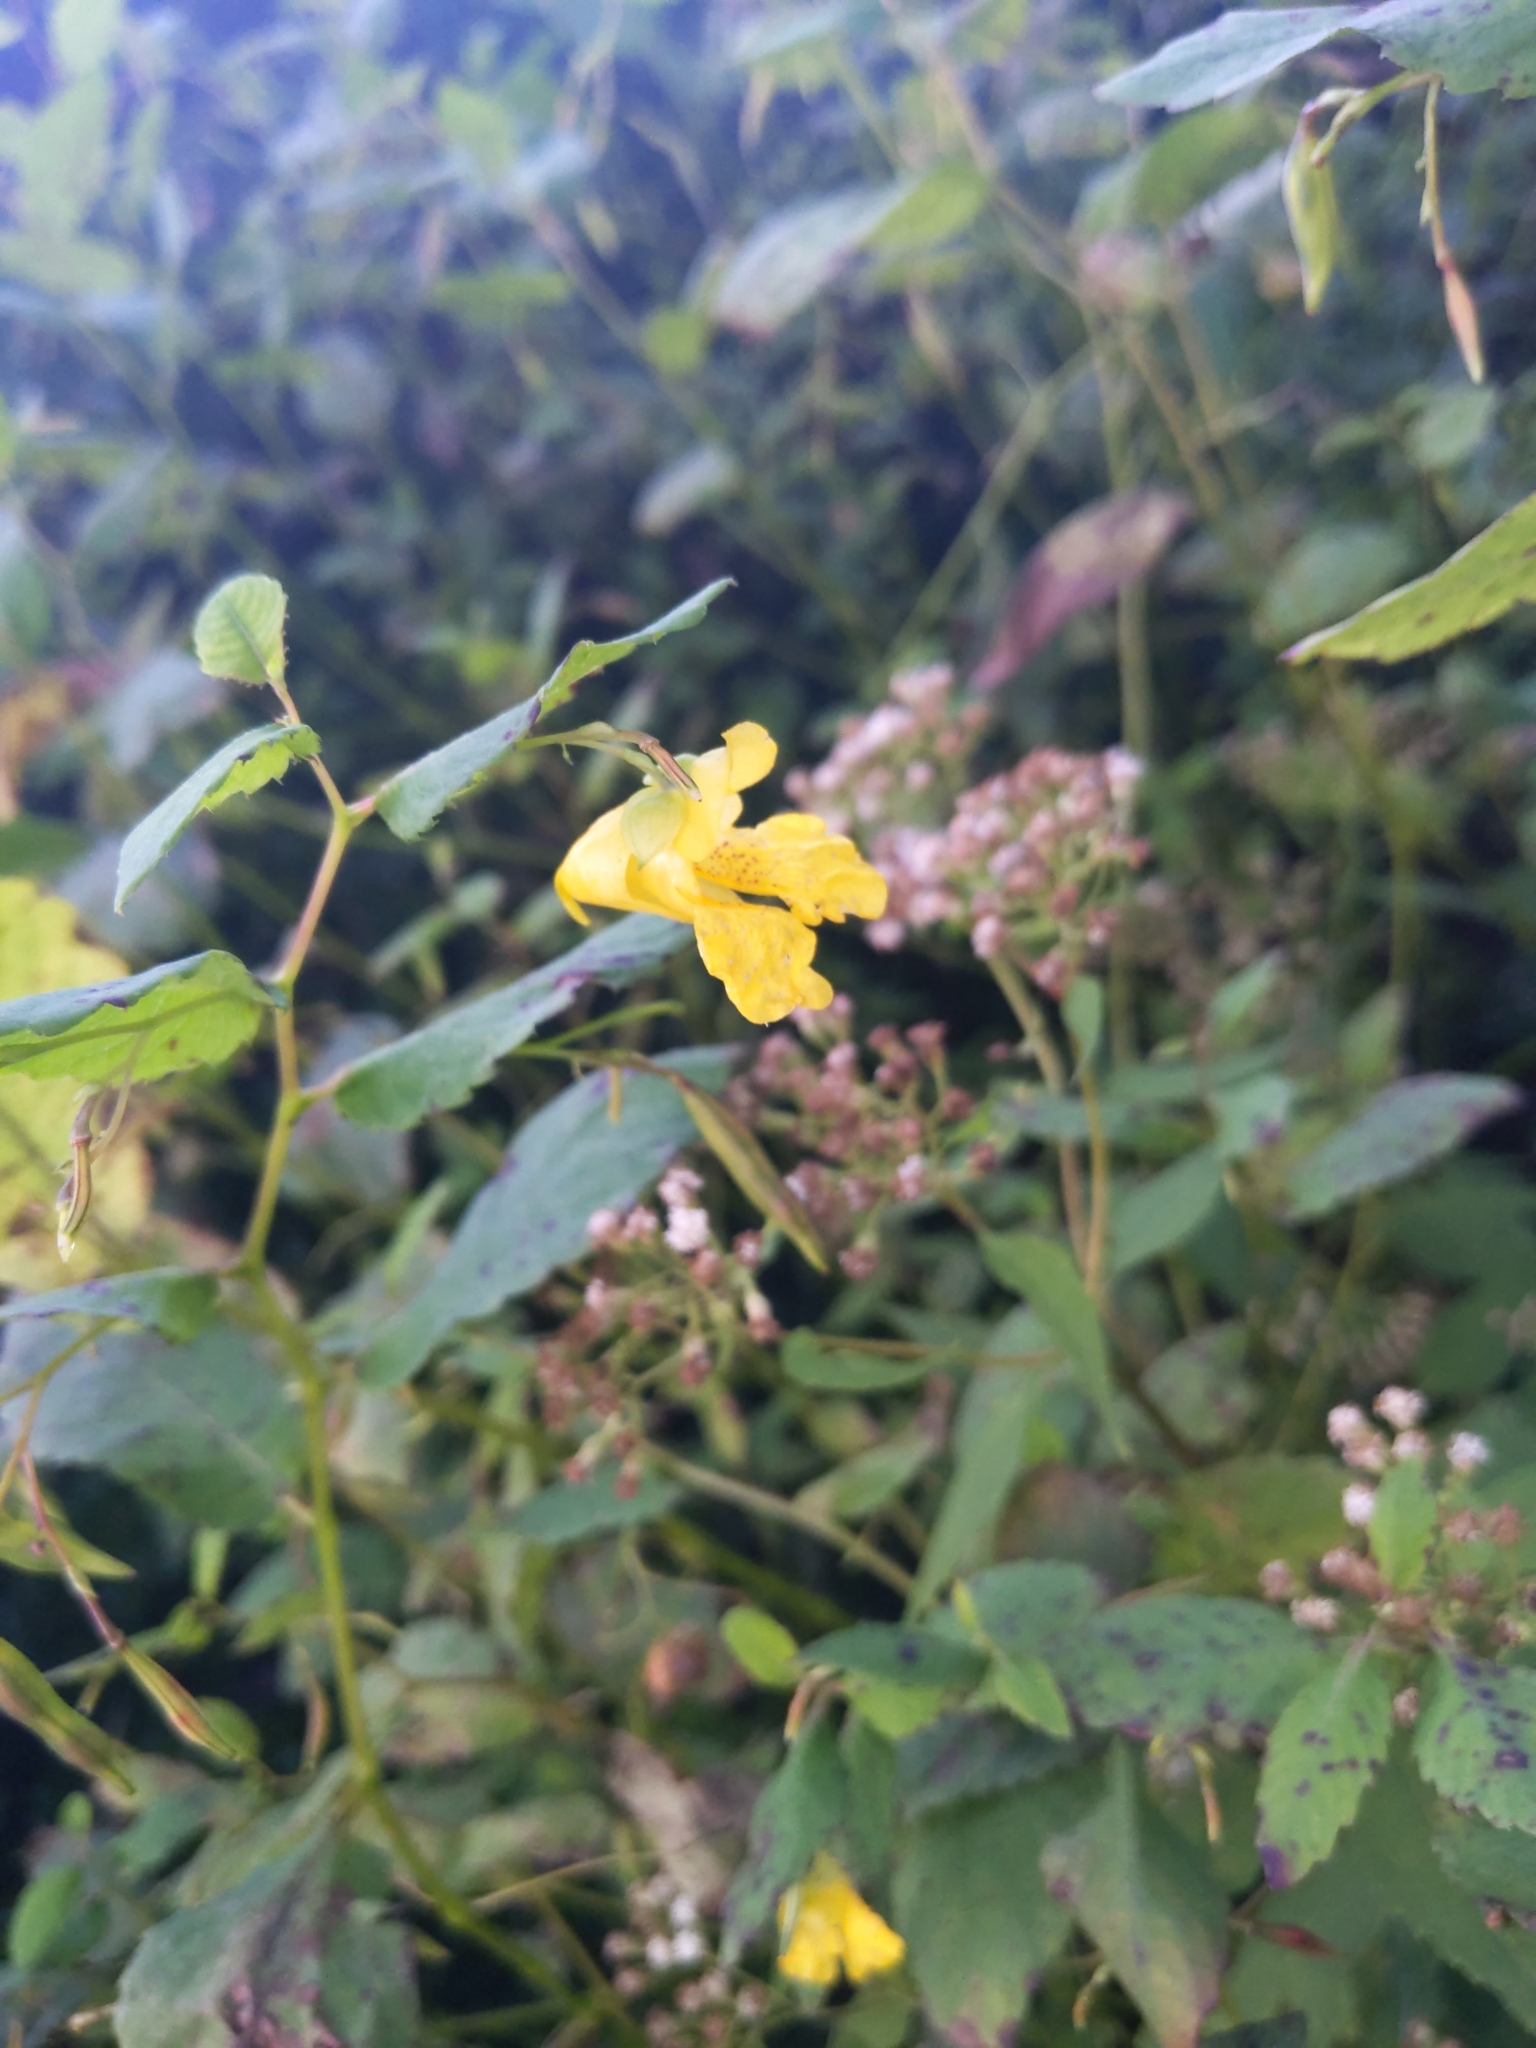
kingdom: Plantae
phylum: Tracheophyta
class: Magnoliopsida
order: Ericales
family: Balsaminaceae
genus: Impatiens
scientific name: Impatiens pallida
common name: Pale snapweed
